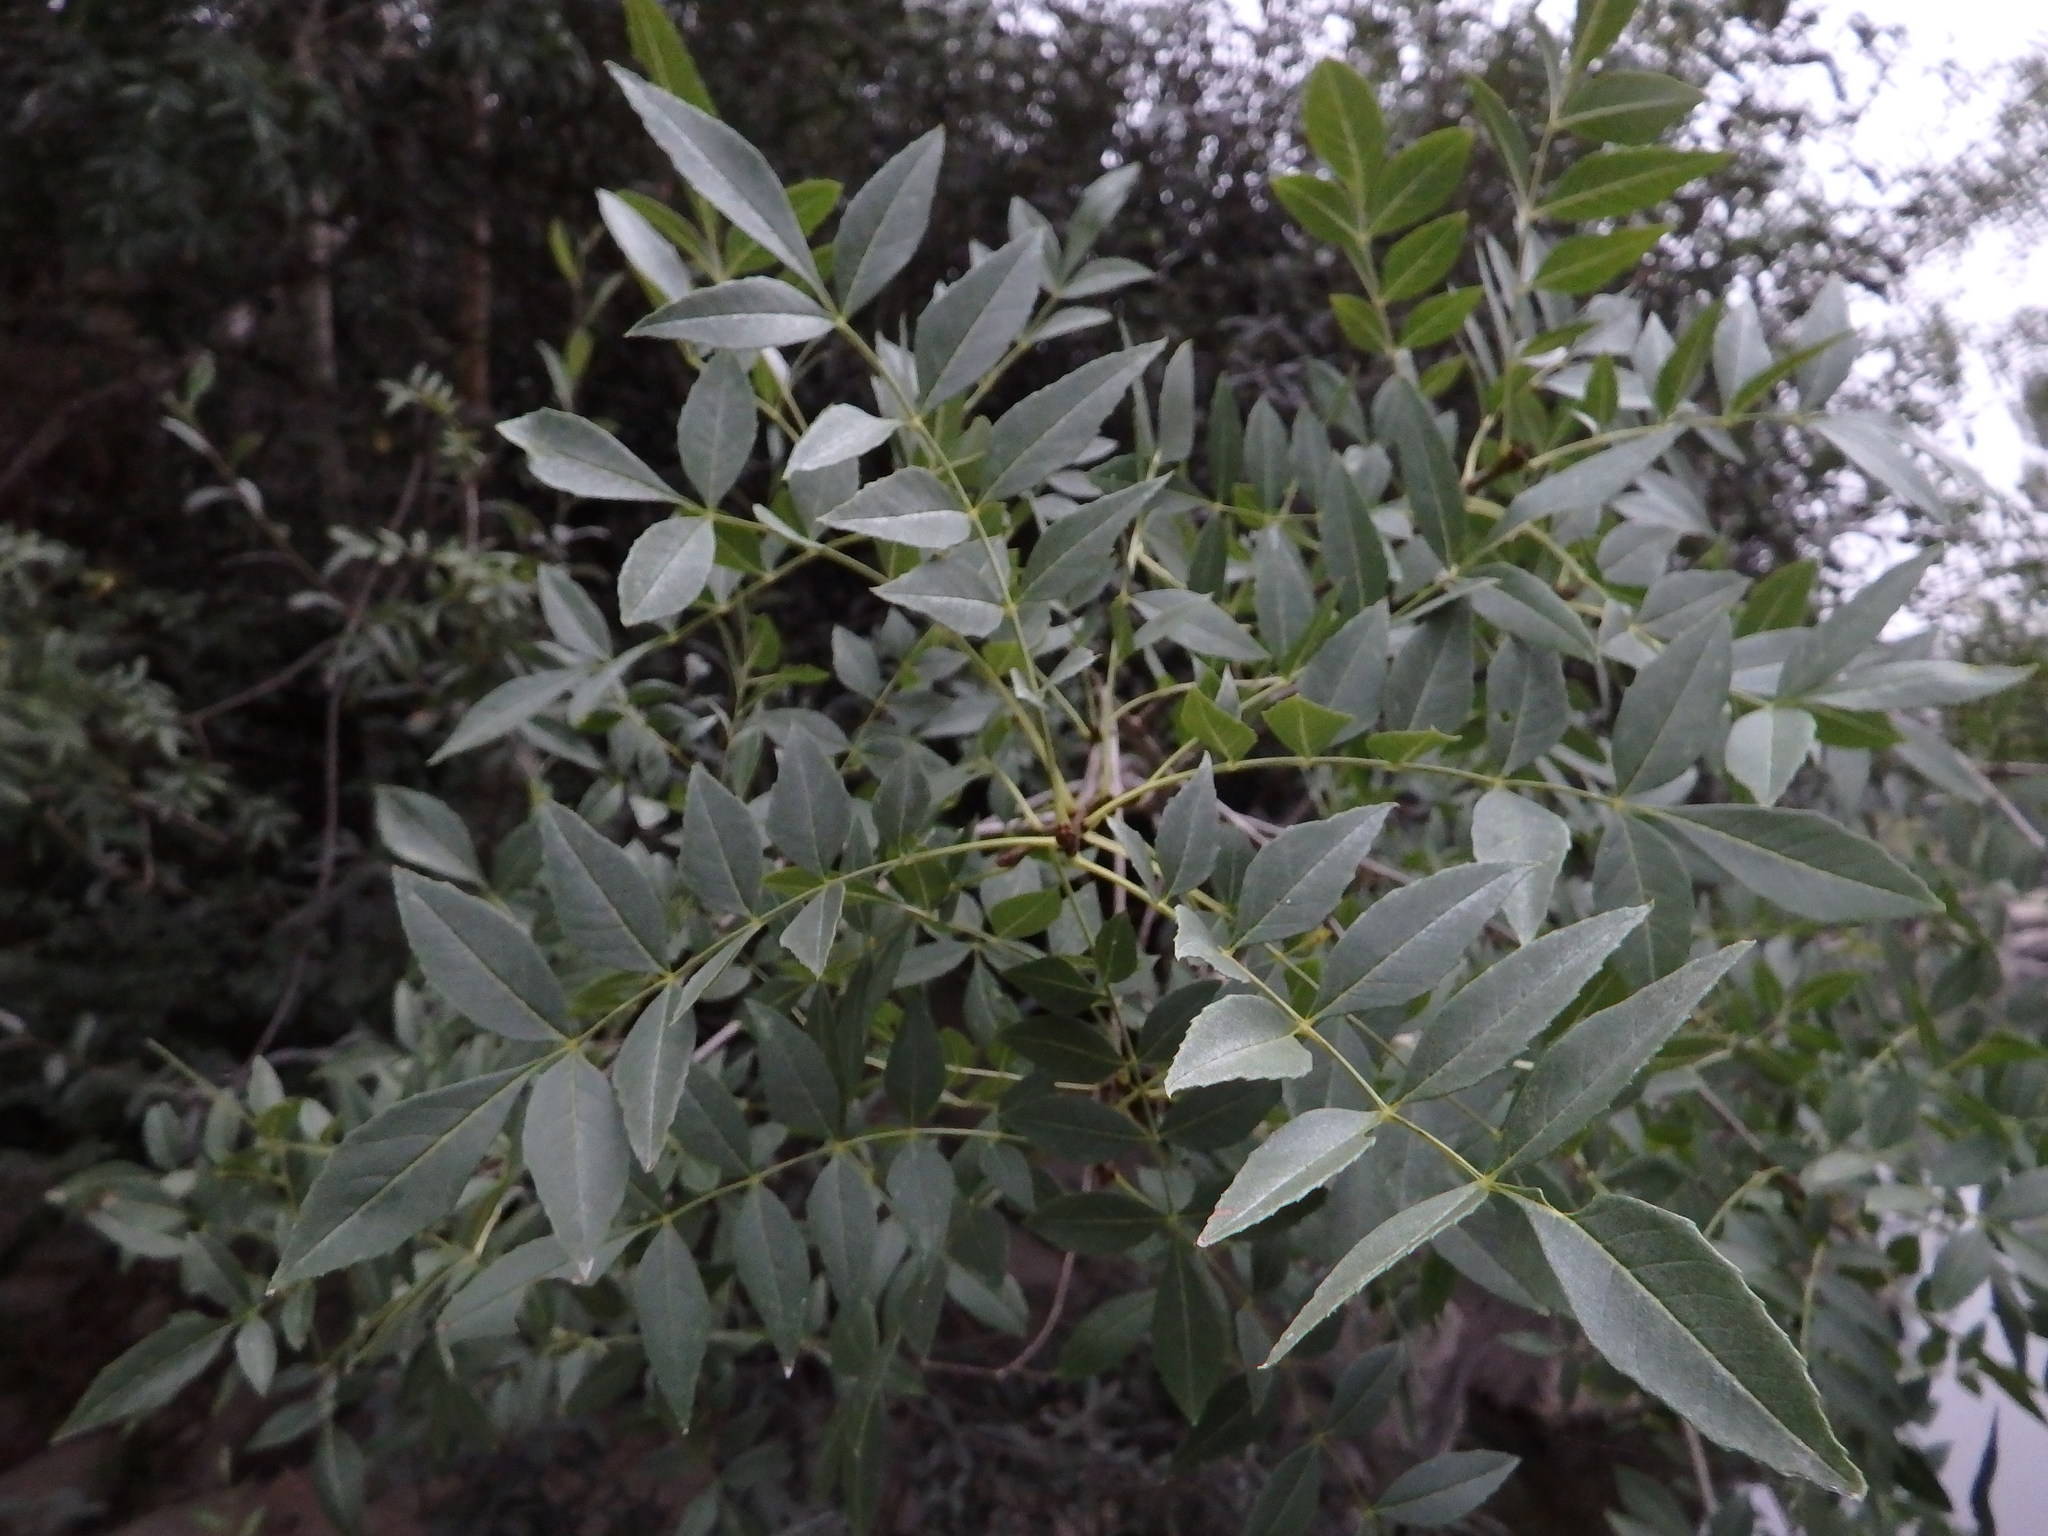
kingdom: Plantae
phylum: Tracheophyta
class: Magnoliopsida
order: Lamiales
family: Oleaceae
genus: Fraxinus
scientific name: Fraxinus angustifolia
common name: Narrow-leafed ash
